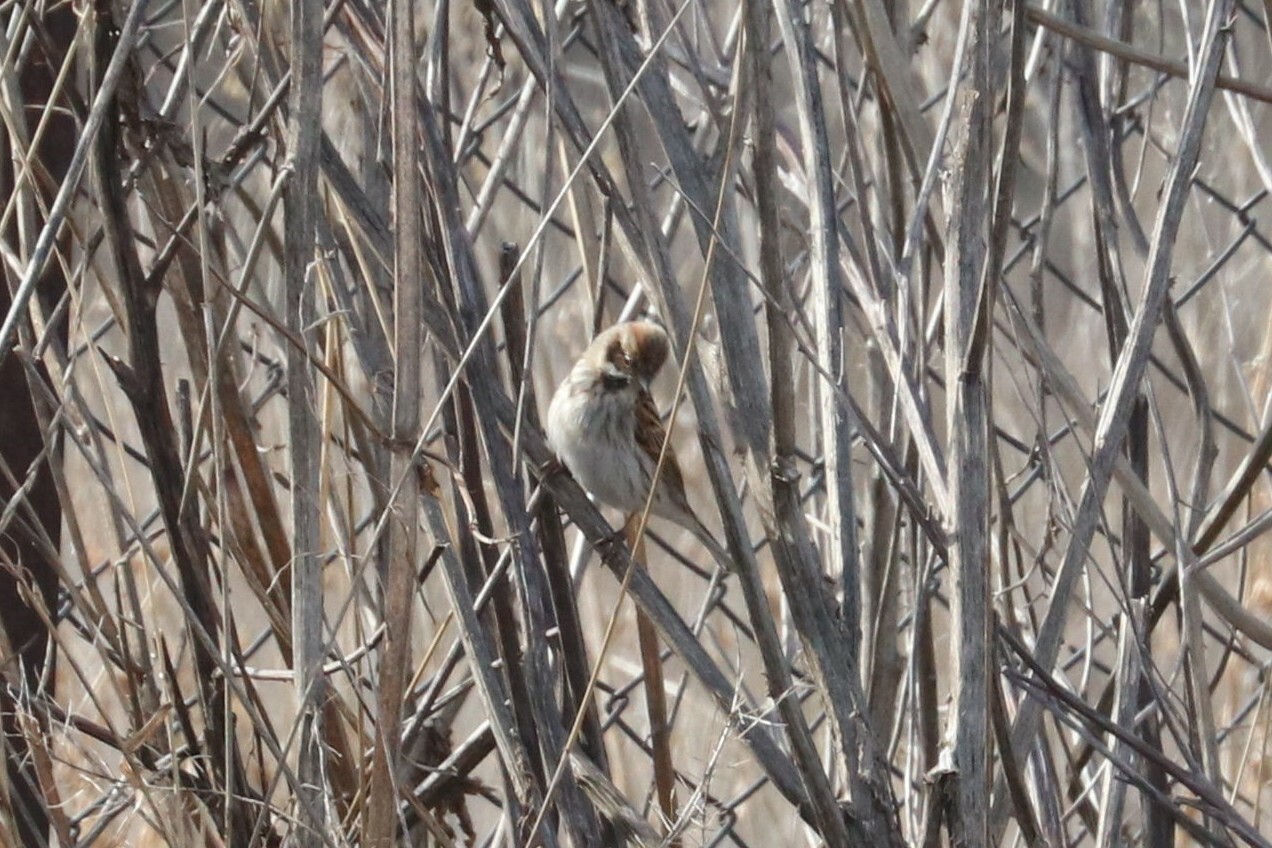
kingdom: Animalia
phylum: Chordata
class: Aves
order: Passeriformes
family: Emberizidae
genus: Emberiza
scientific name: Emberiza schoeniclus
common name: Reed bunting
